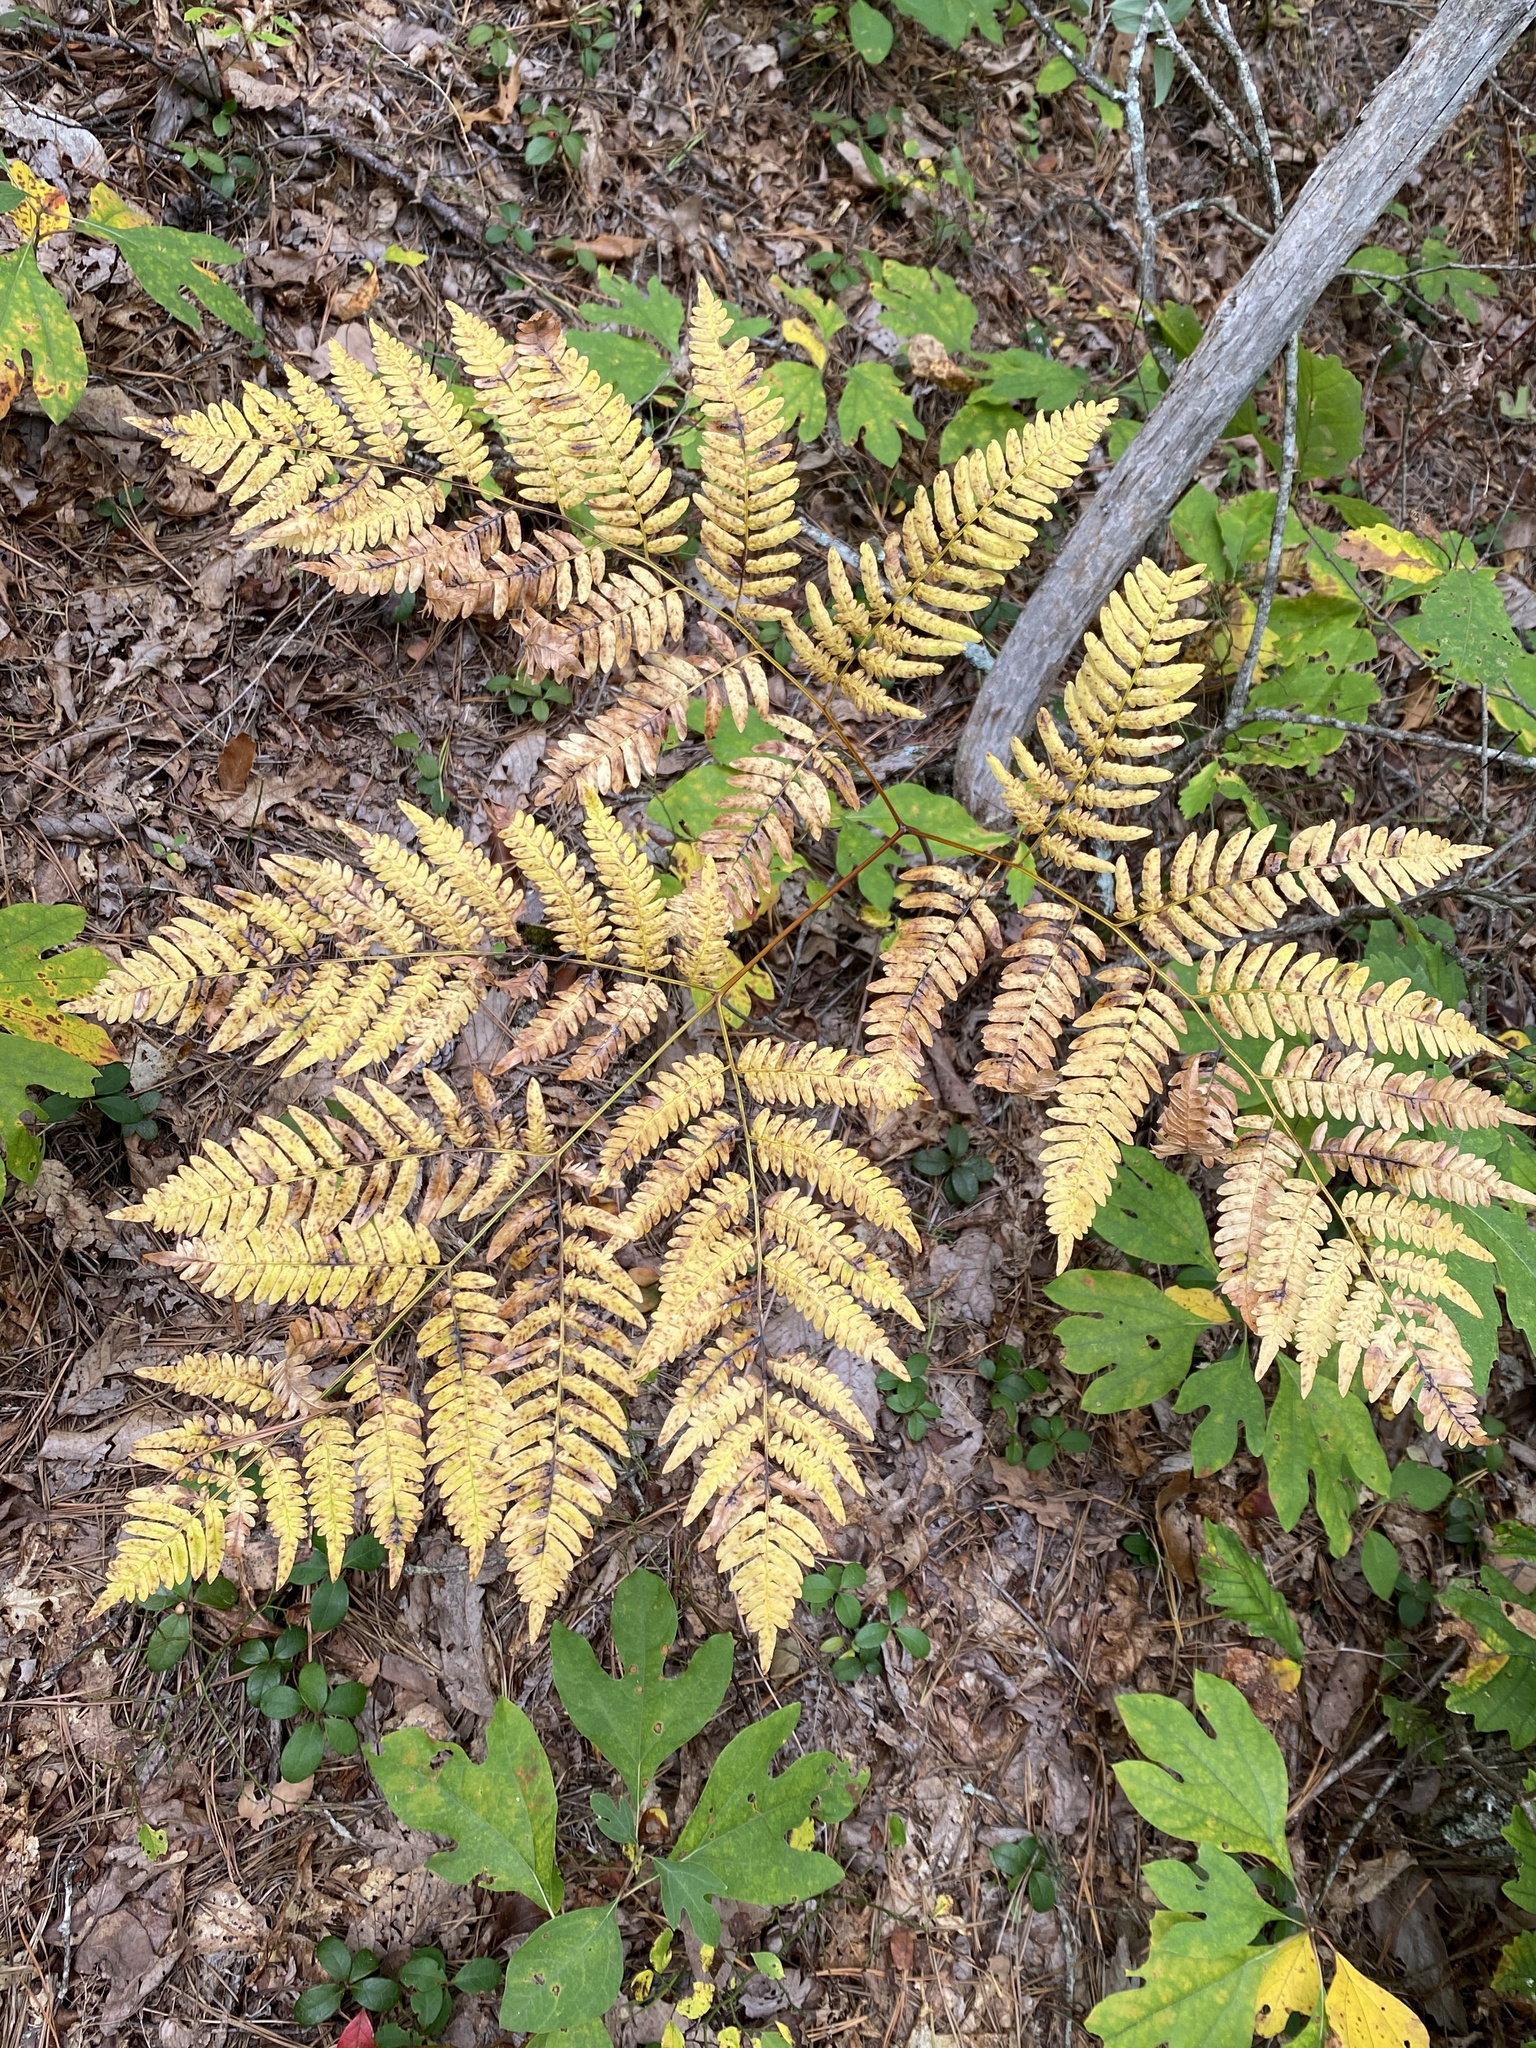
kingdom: Plantae
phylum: Tracheophyta
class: Polypodiopsida
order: Polypodiales
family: Dennstaedtiaceae
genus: Pteridium
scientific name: Pteridium aquilinum
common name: Bracken
